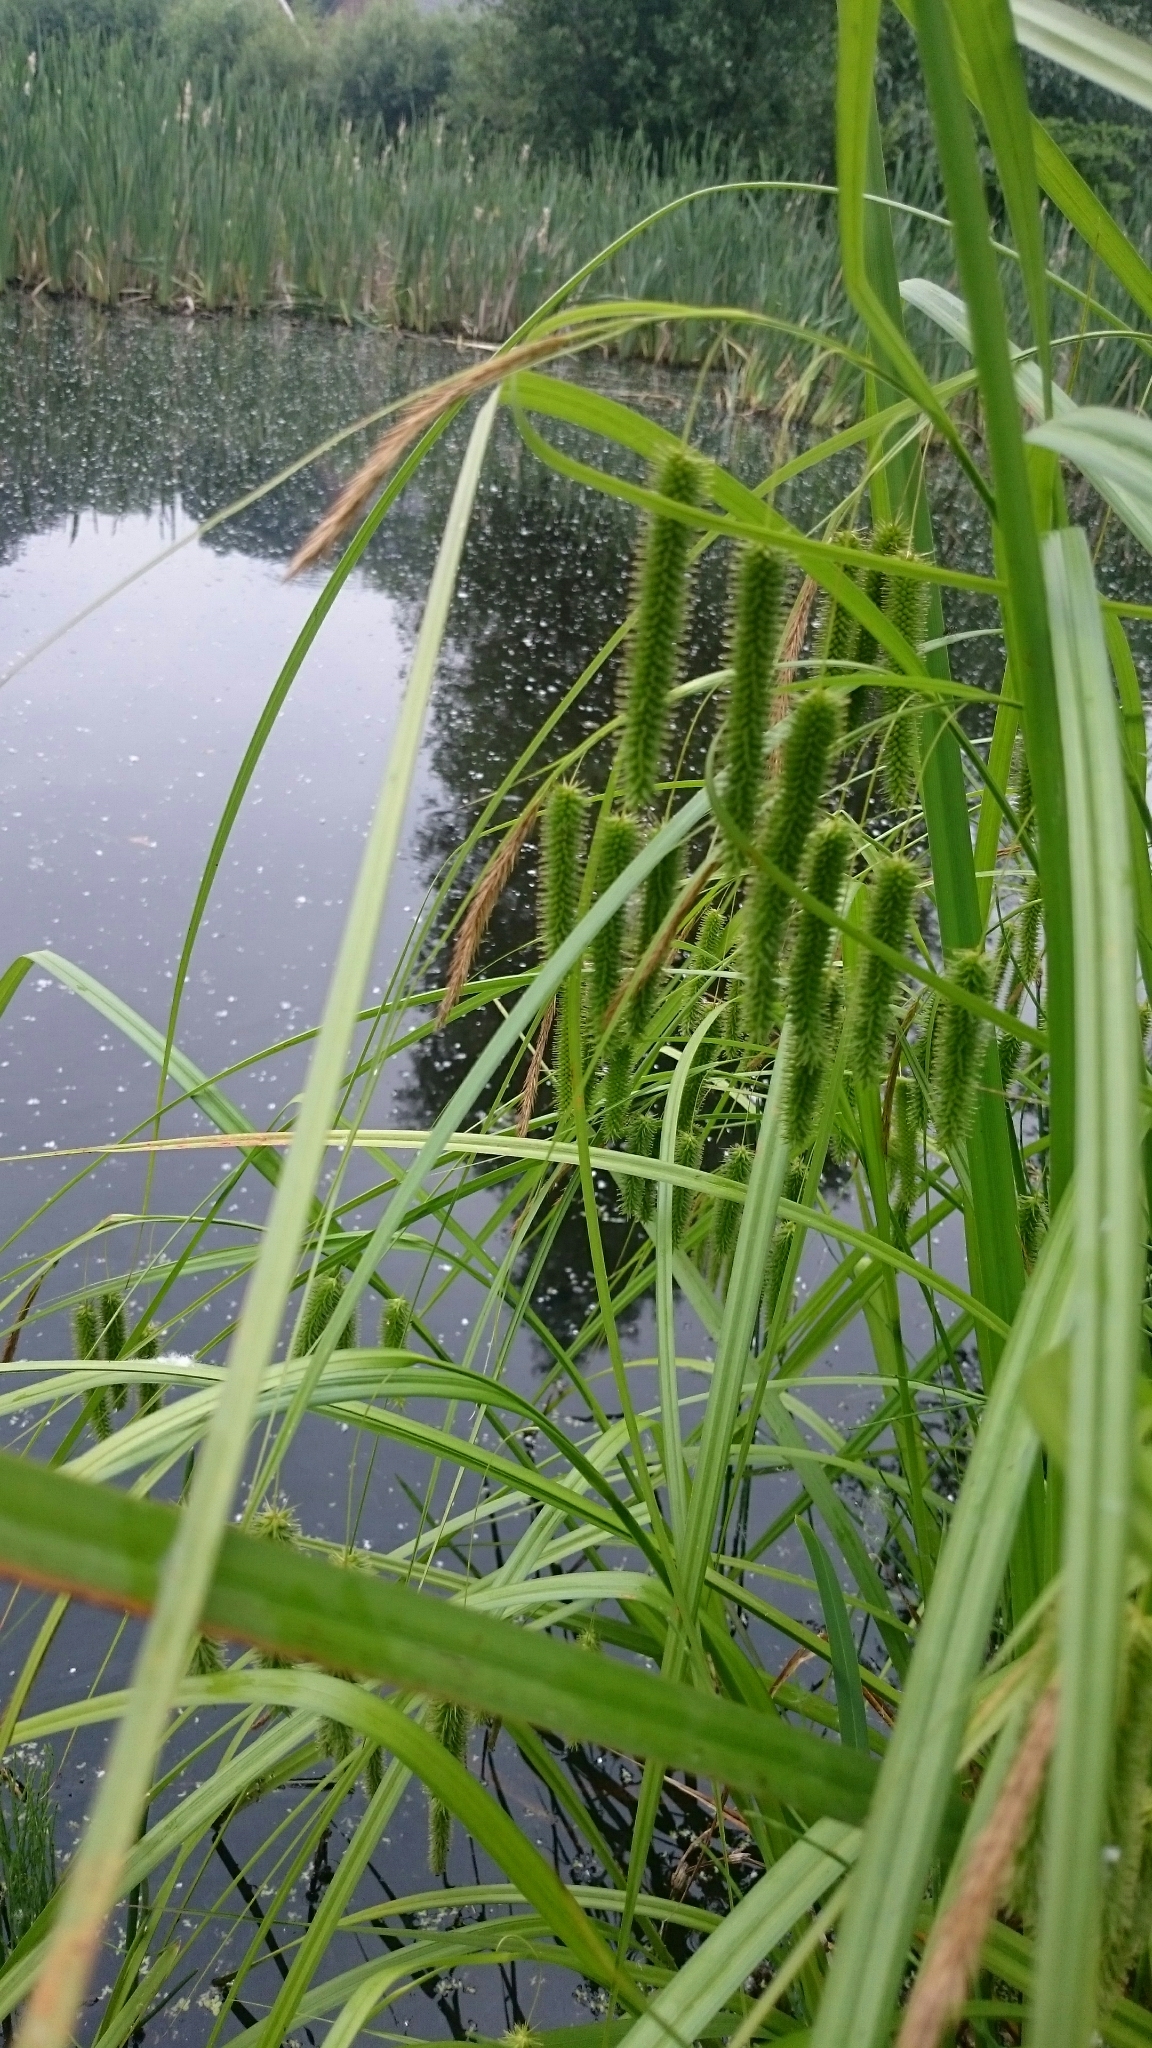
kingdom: Plantae
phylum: Tracheophyta
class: Liliopsida
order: Poales
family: Cyperaceae
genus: Carex
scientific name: Carex pseudocyperus
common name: Cyperus sedge
